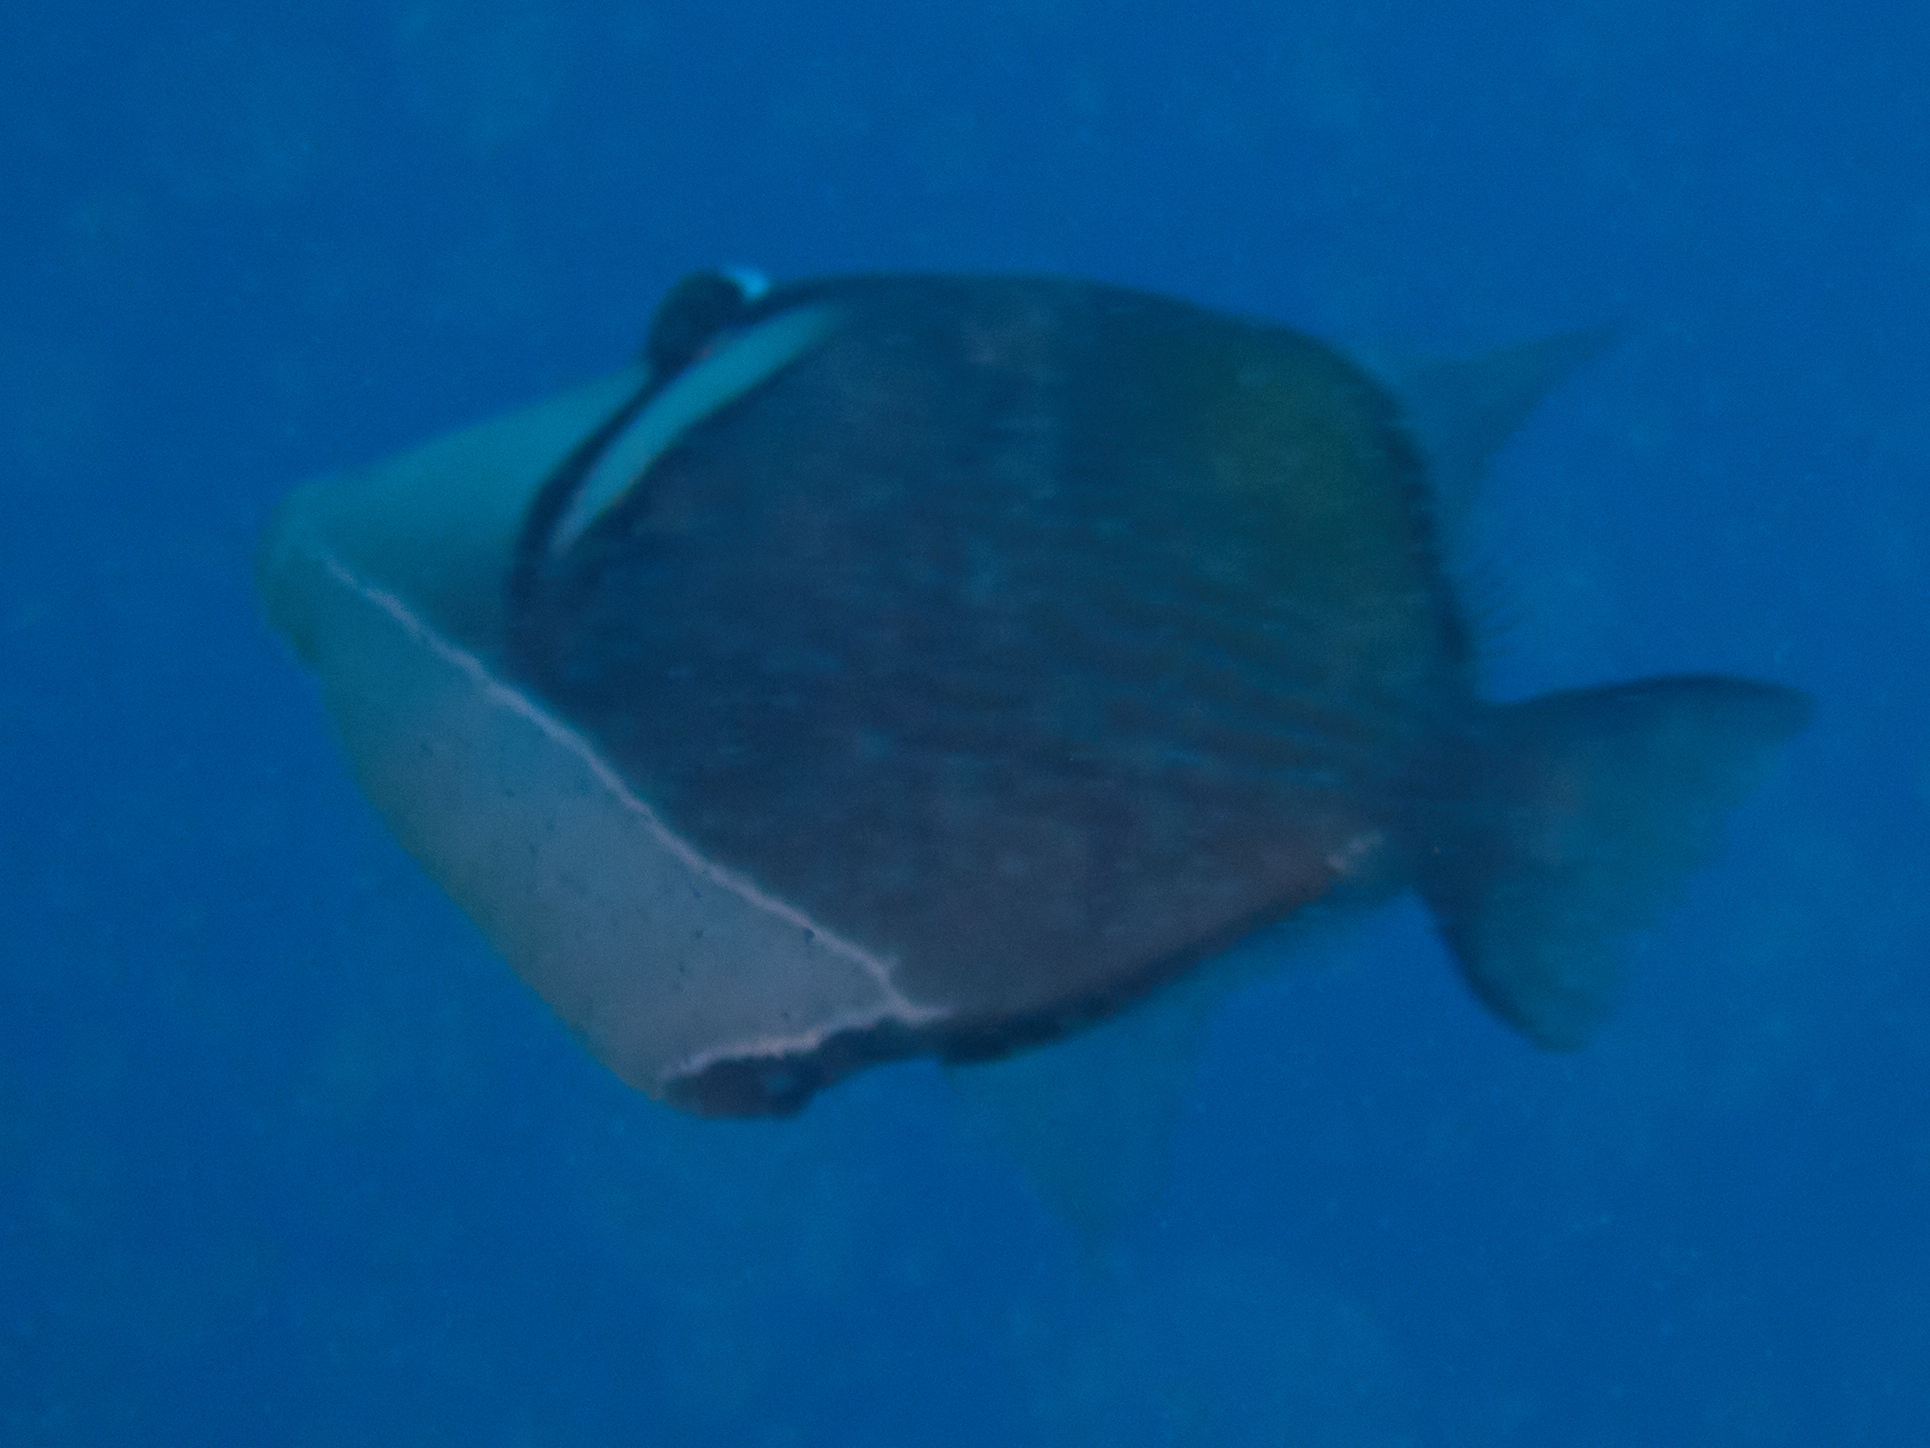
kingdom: Animalia
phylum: Chordata
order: Tetraodontiformes
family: Balistidae
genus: Sufflamen
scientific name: Sufflamen bursa
